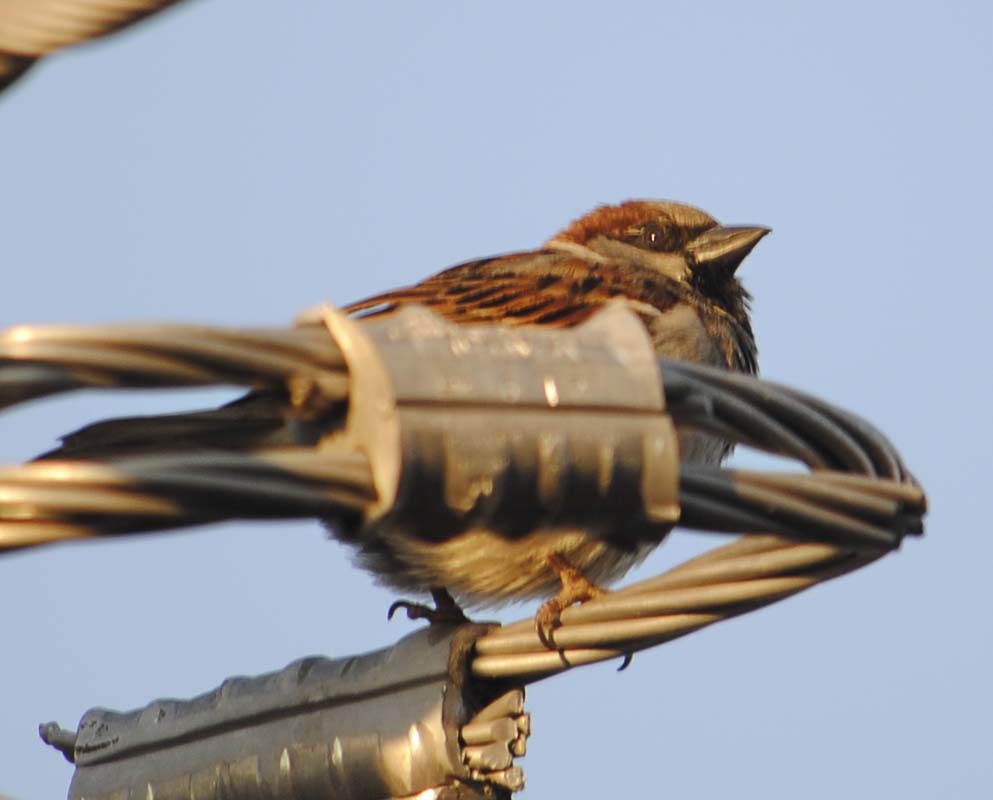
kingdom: Animalia
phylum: Chordata
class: Aves
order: Passeriformes
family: Passeridae
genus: Passer
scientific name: Passer domesticus
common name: House sparrow
